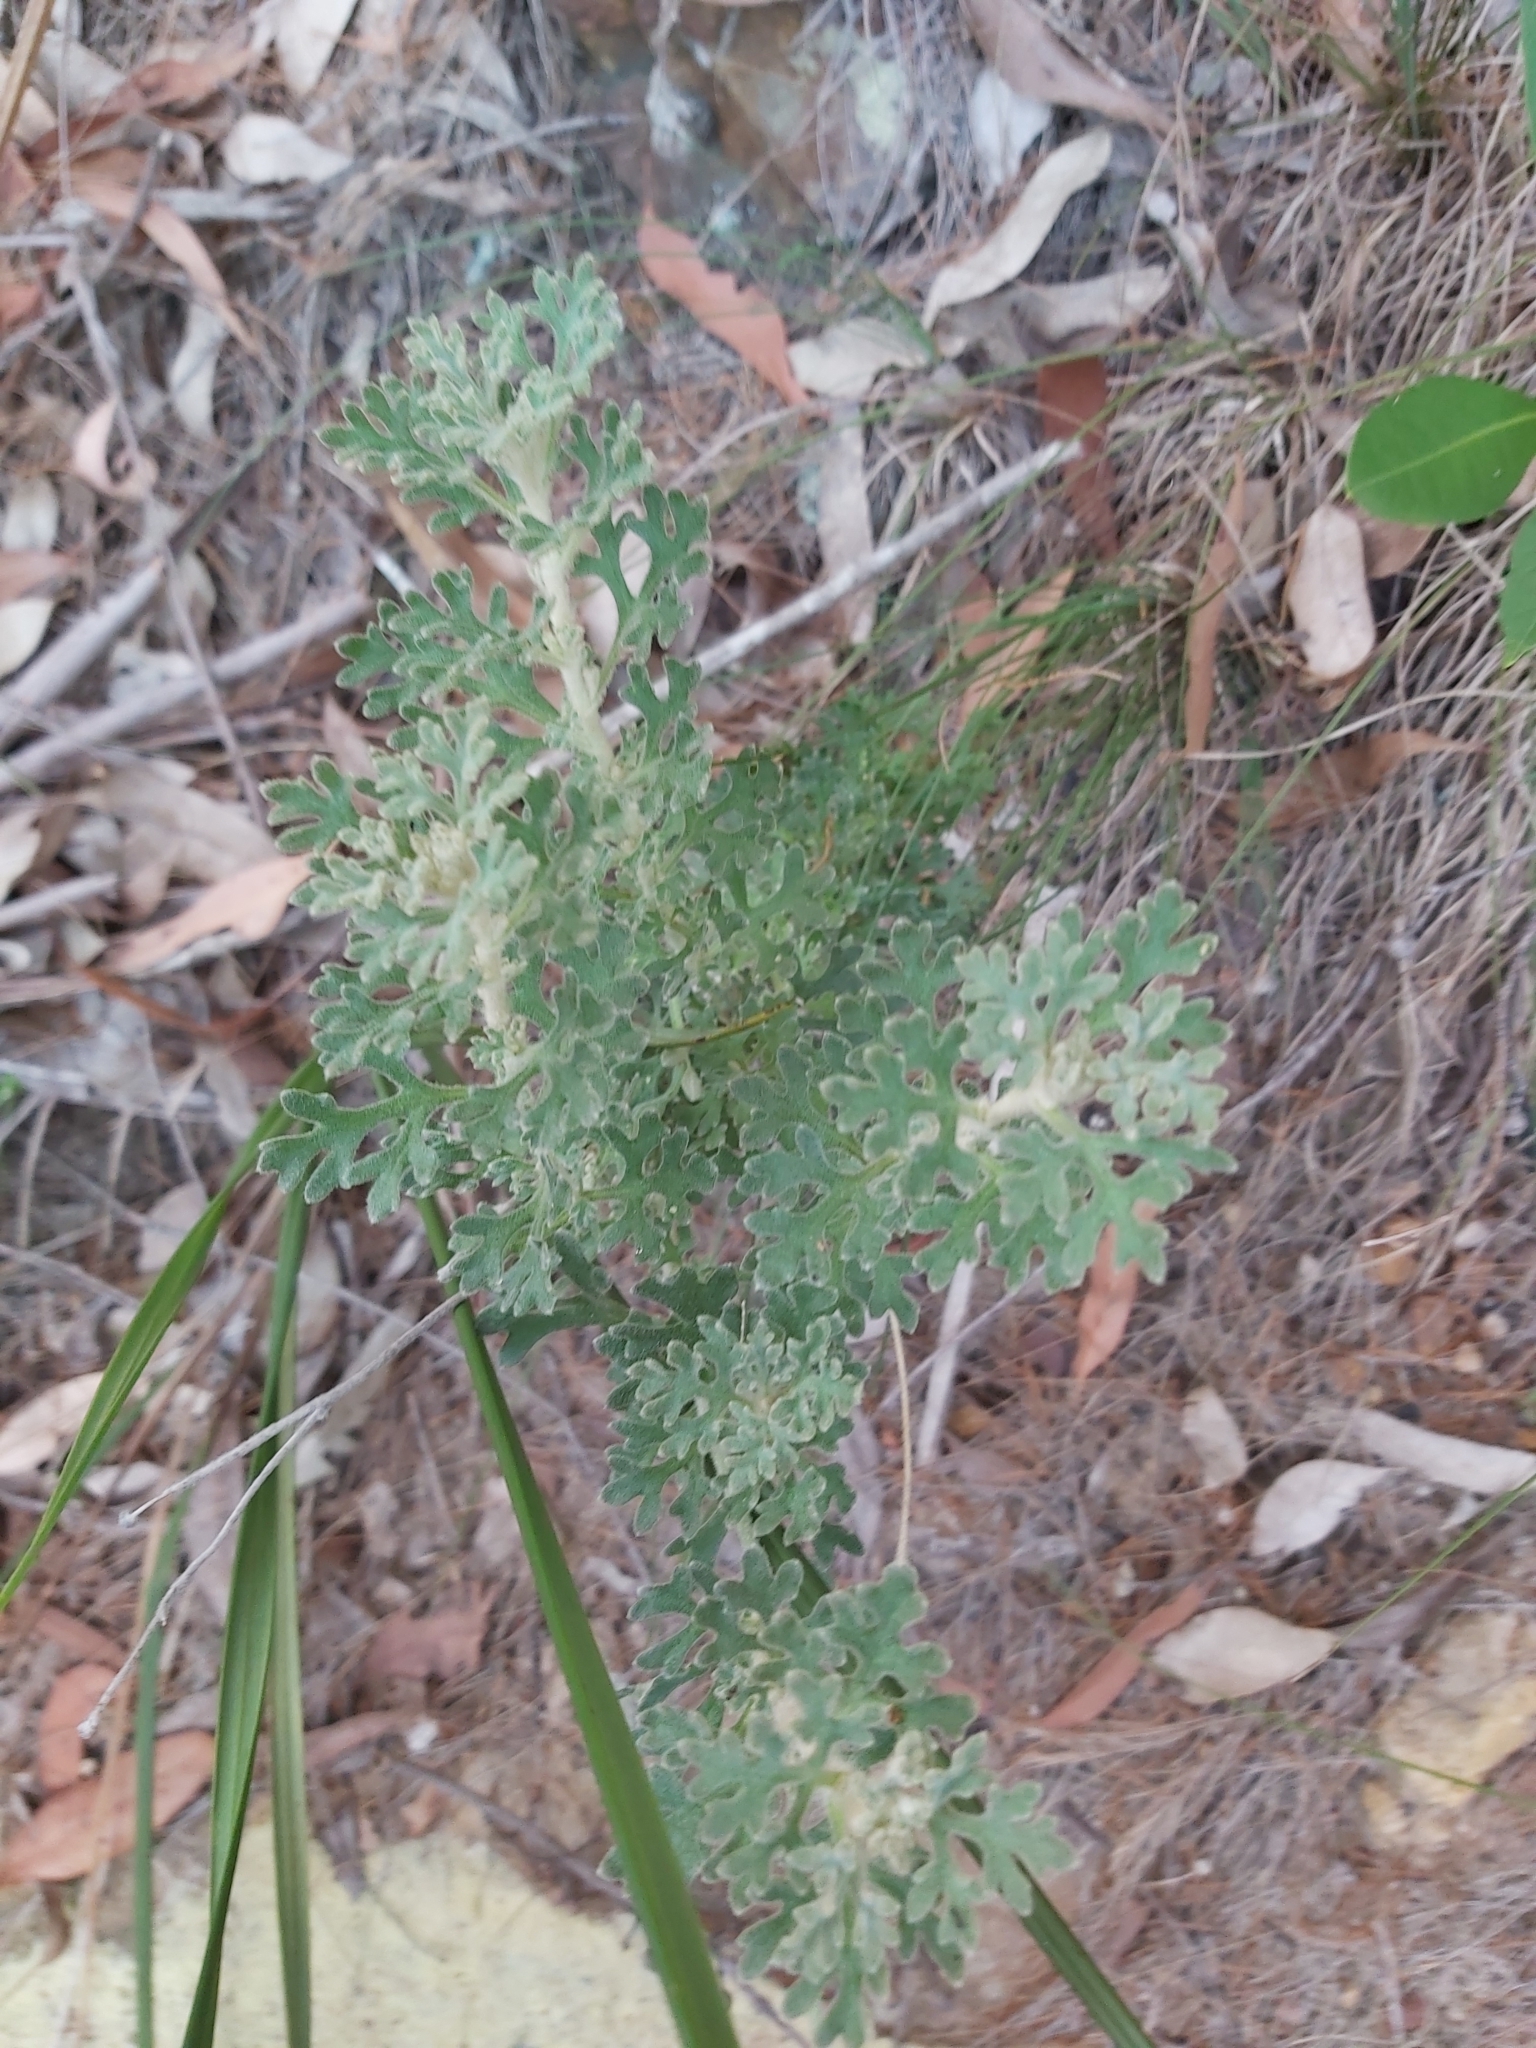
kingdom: Plantae
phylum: Tracheophyta
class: Magnoliopsida
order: Apiales
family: Apiaceae
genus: Actinotus
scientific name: Actinotus helianthi
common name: Flannel-flower
